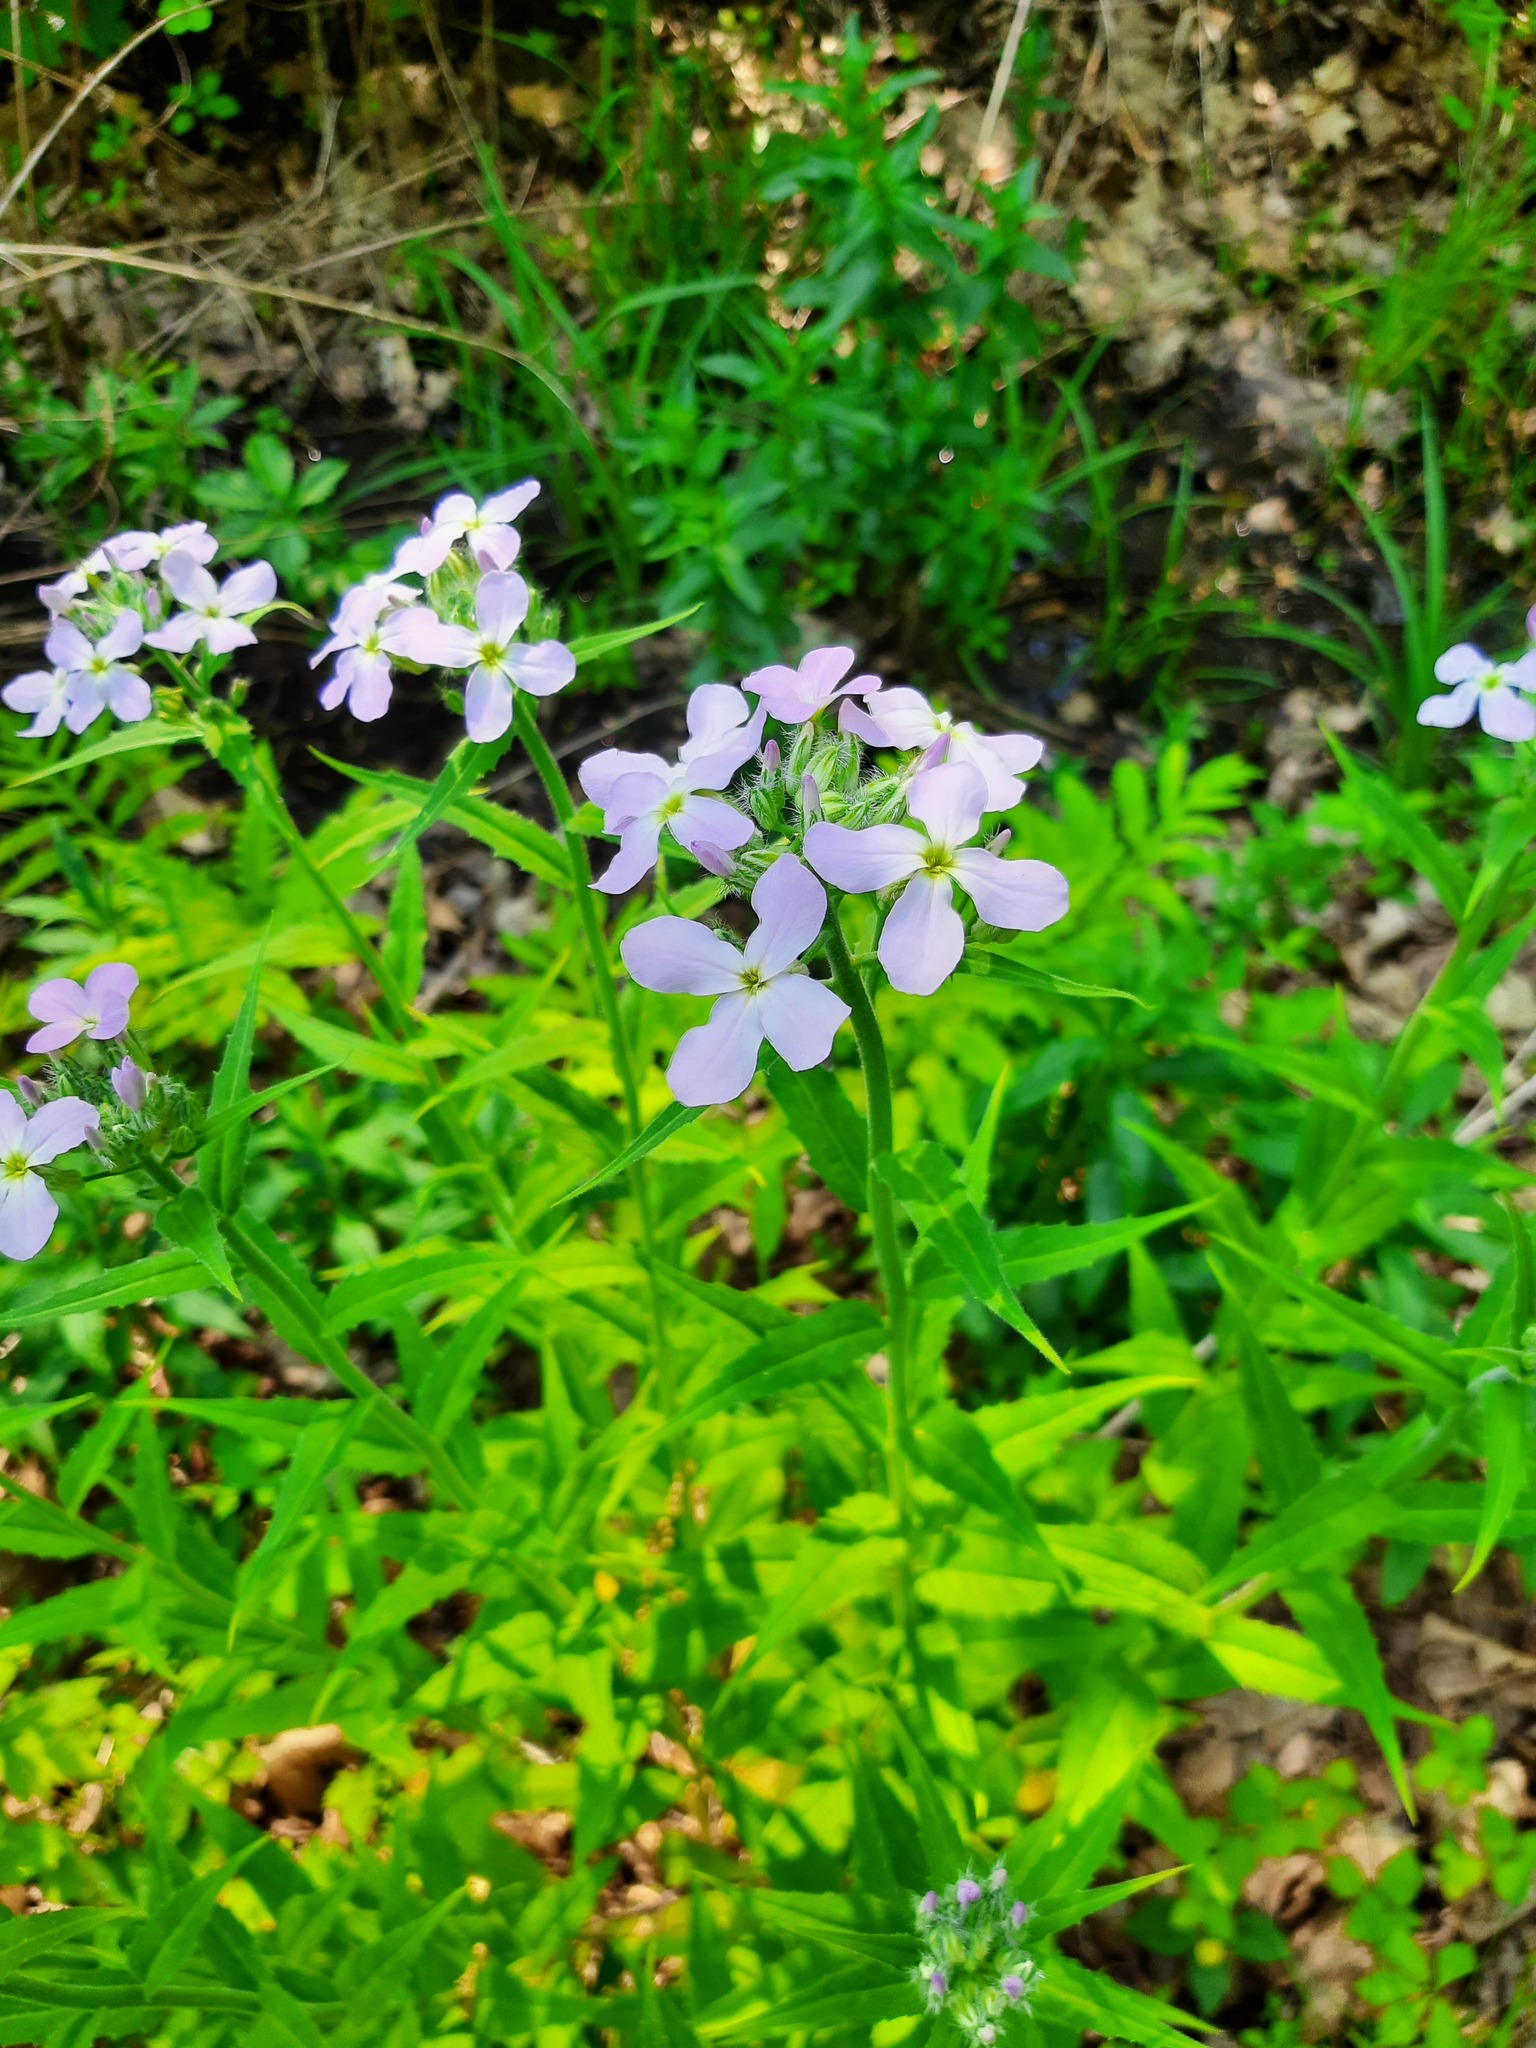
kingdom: Plantae
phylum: Tracheophyta
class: Magnoliopsida
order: Brassicales
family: Brassicaceae
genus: Hesperis
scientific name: Hesperis matronalis
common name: Dame's-violet
